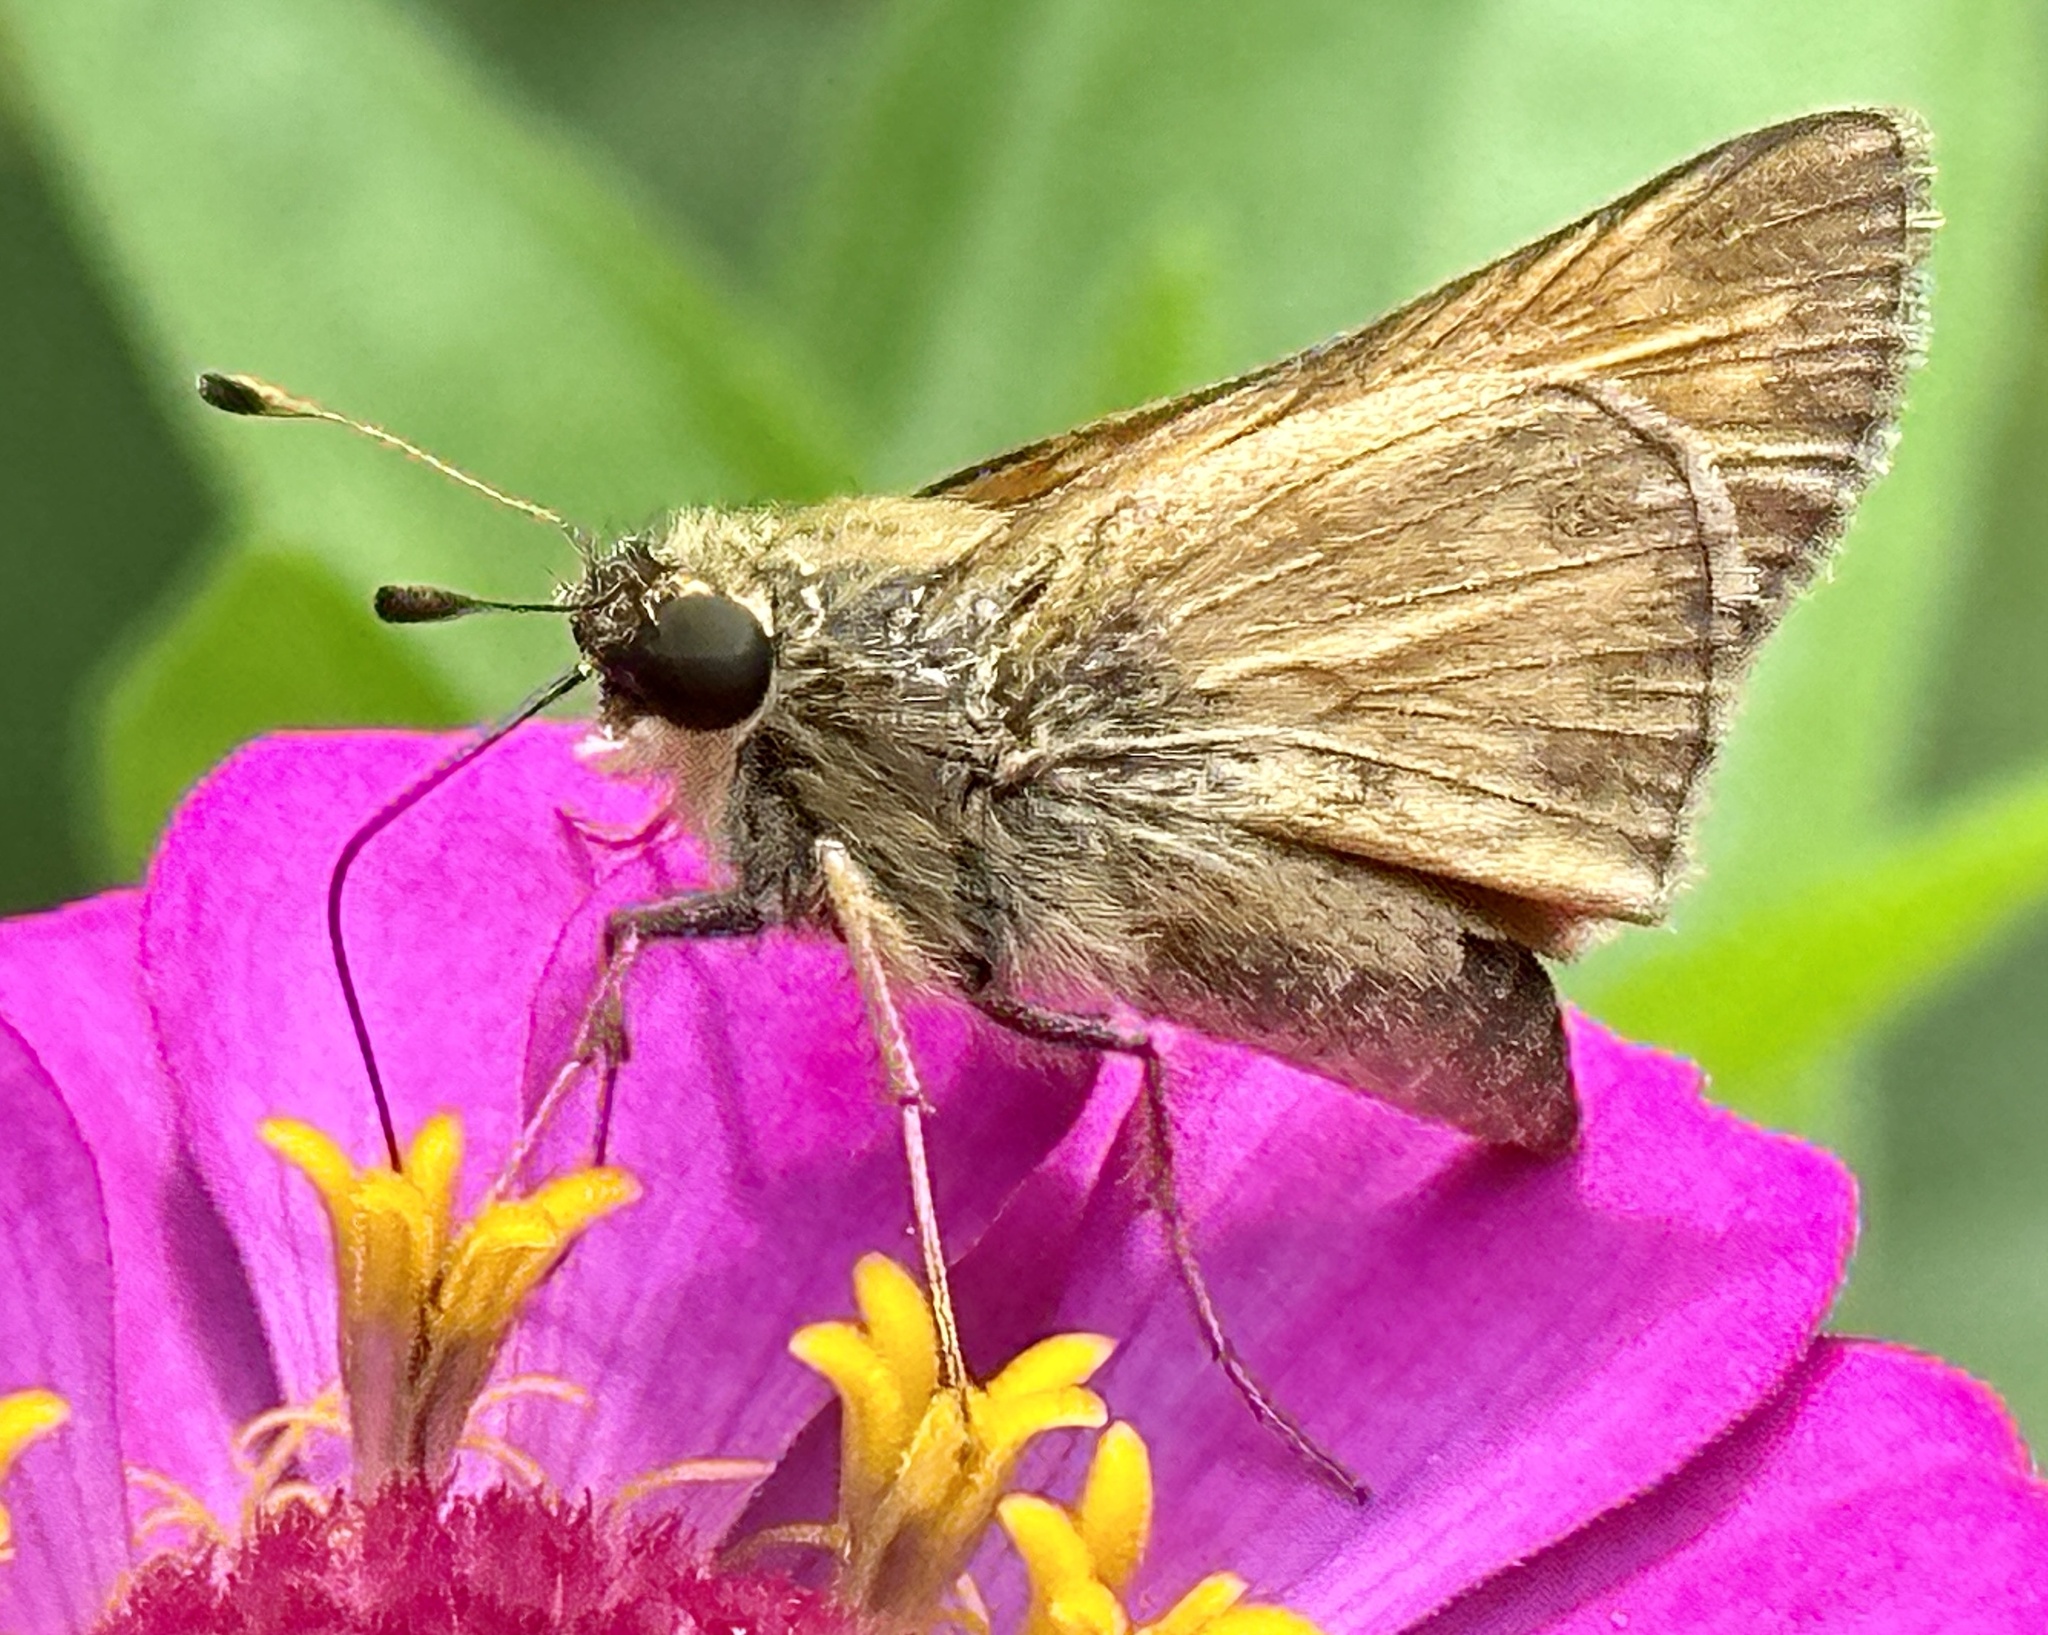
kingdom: Animalia
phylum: Arthropoda
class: Insecta
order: Lepidoptera
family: Hesperiidae
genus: Atalopedes
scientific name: Atalopedes
